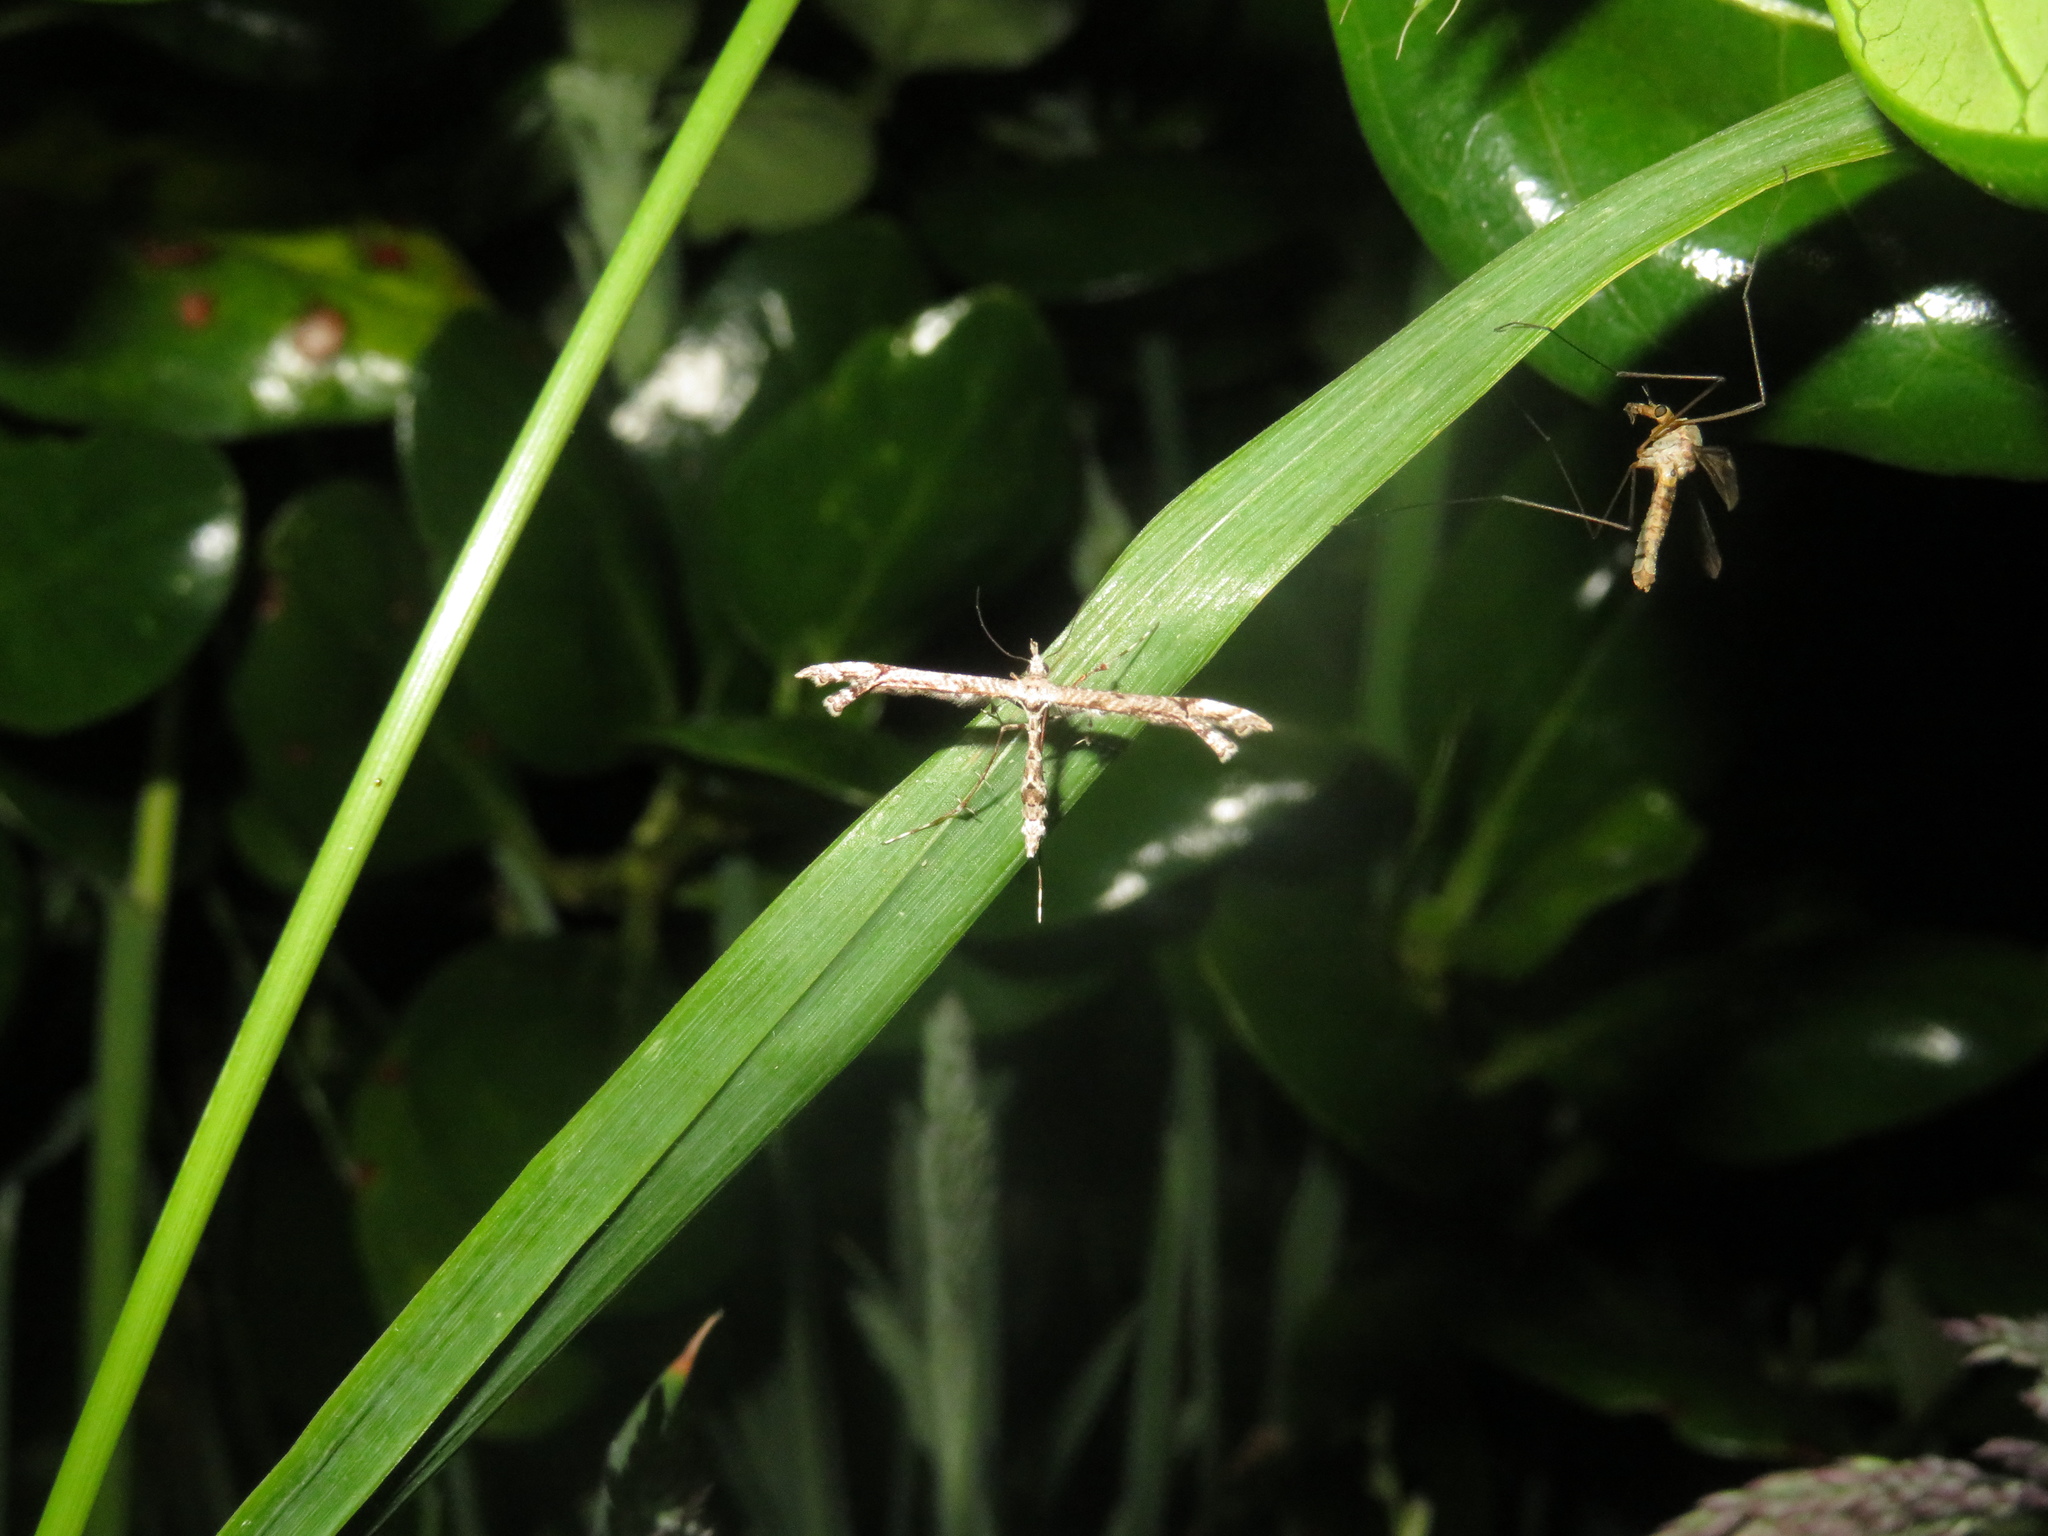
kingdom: Animalia
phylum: Arthropoda
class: Insecta
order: Lepidoptera
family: Pterophoridae
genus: Amblyptilia
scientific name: Amblyptilia repletalis
